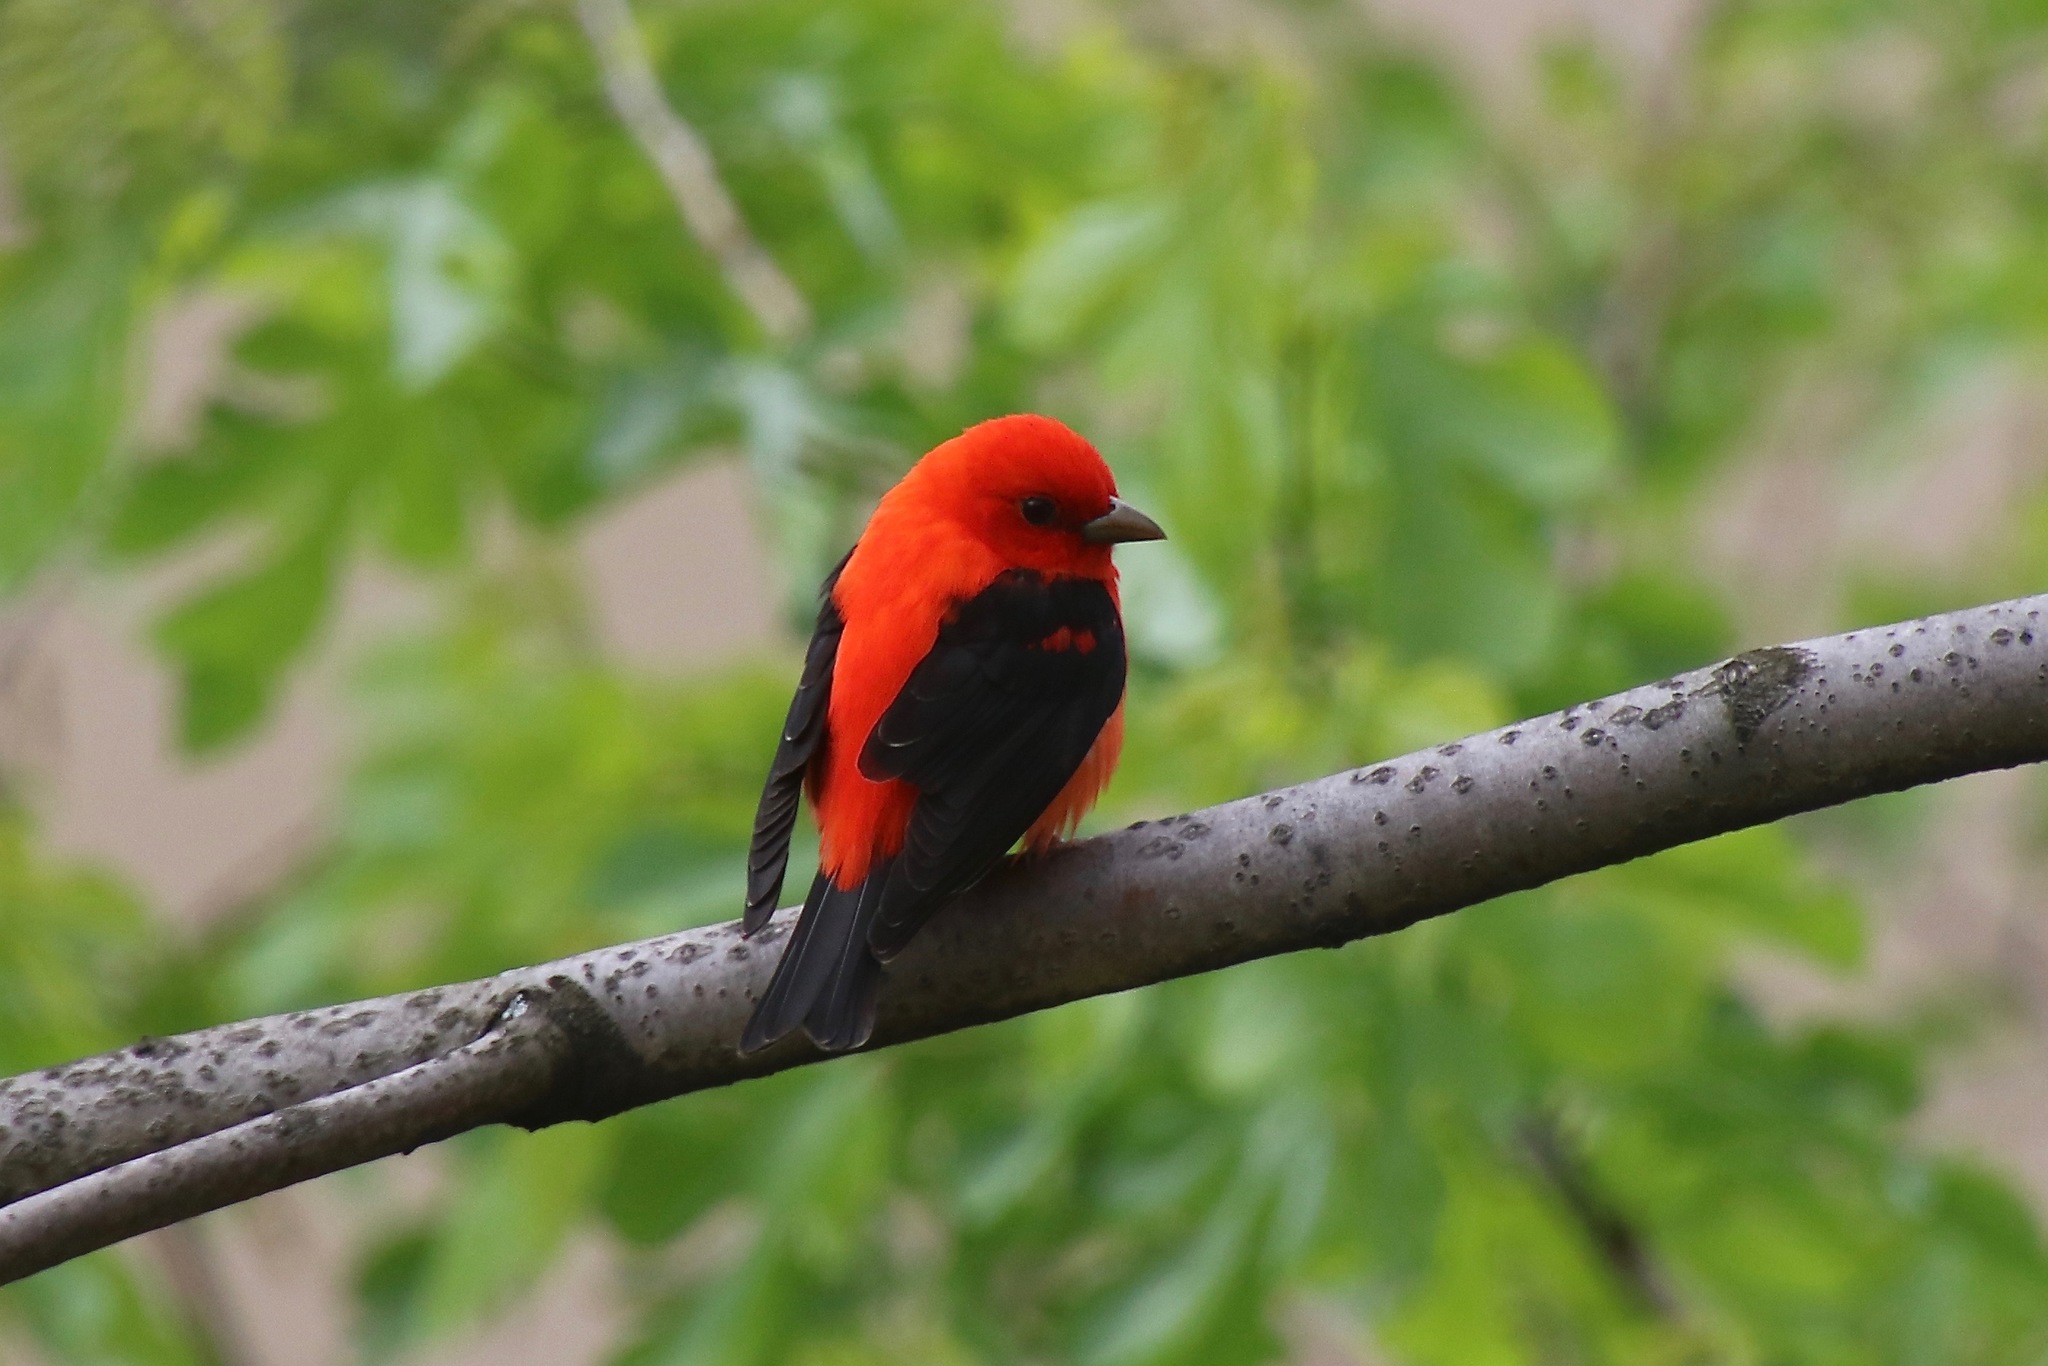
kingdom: Animalia
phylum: Chordata
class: Aves
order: Passeriformes
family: Cardinalidae
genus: Piranga
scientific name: Piranga olivacea
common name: Scarlet tanager
